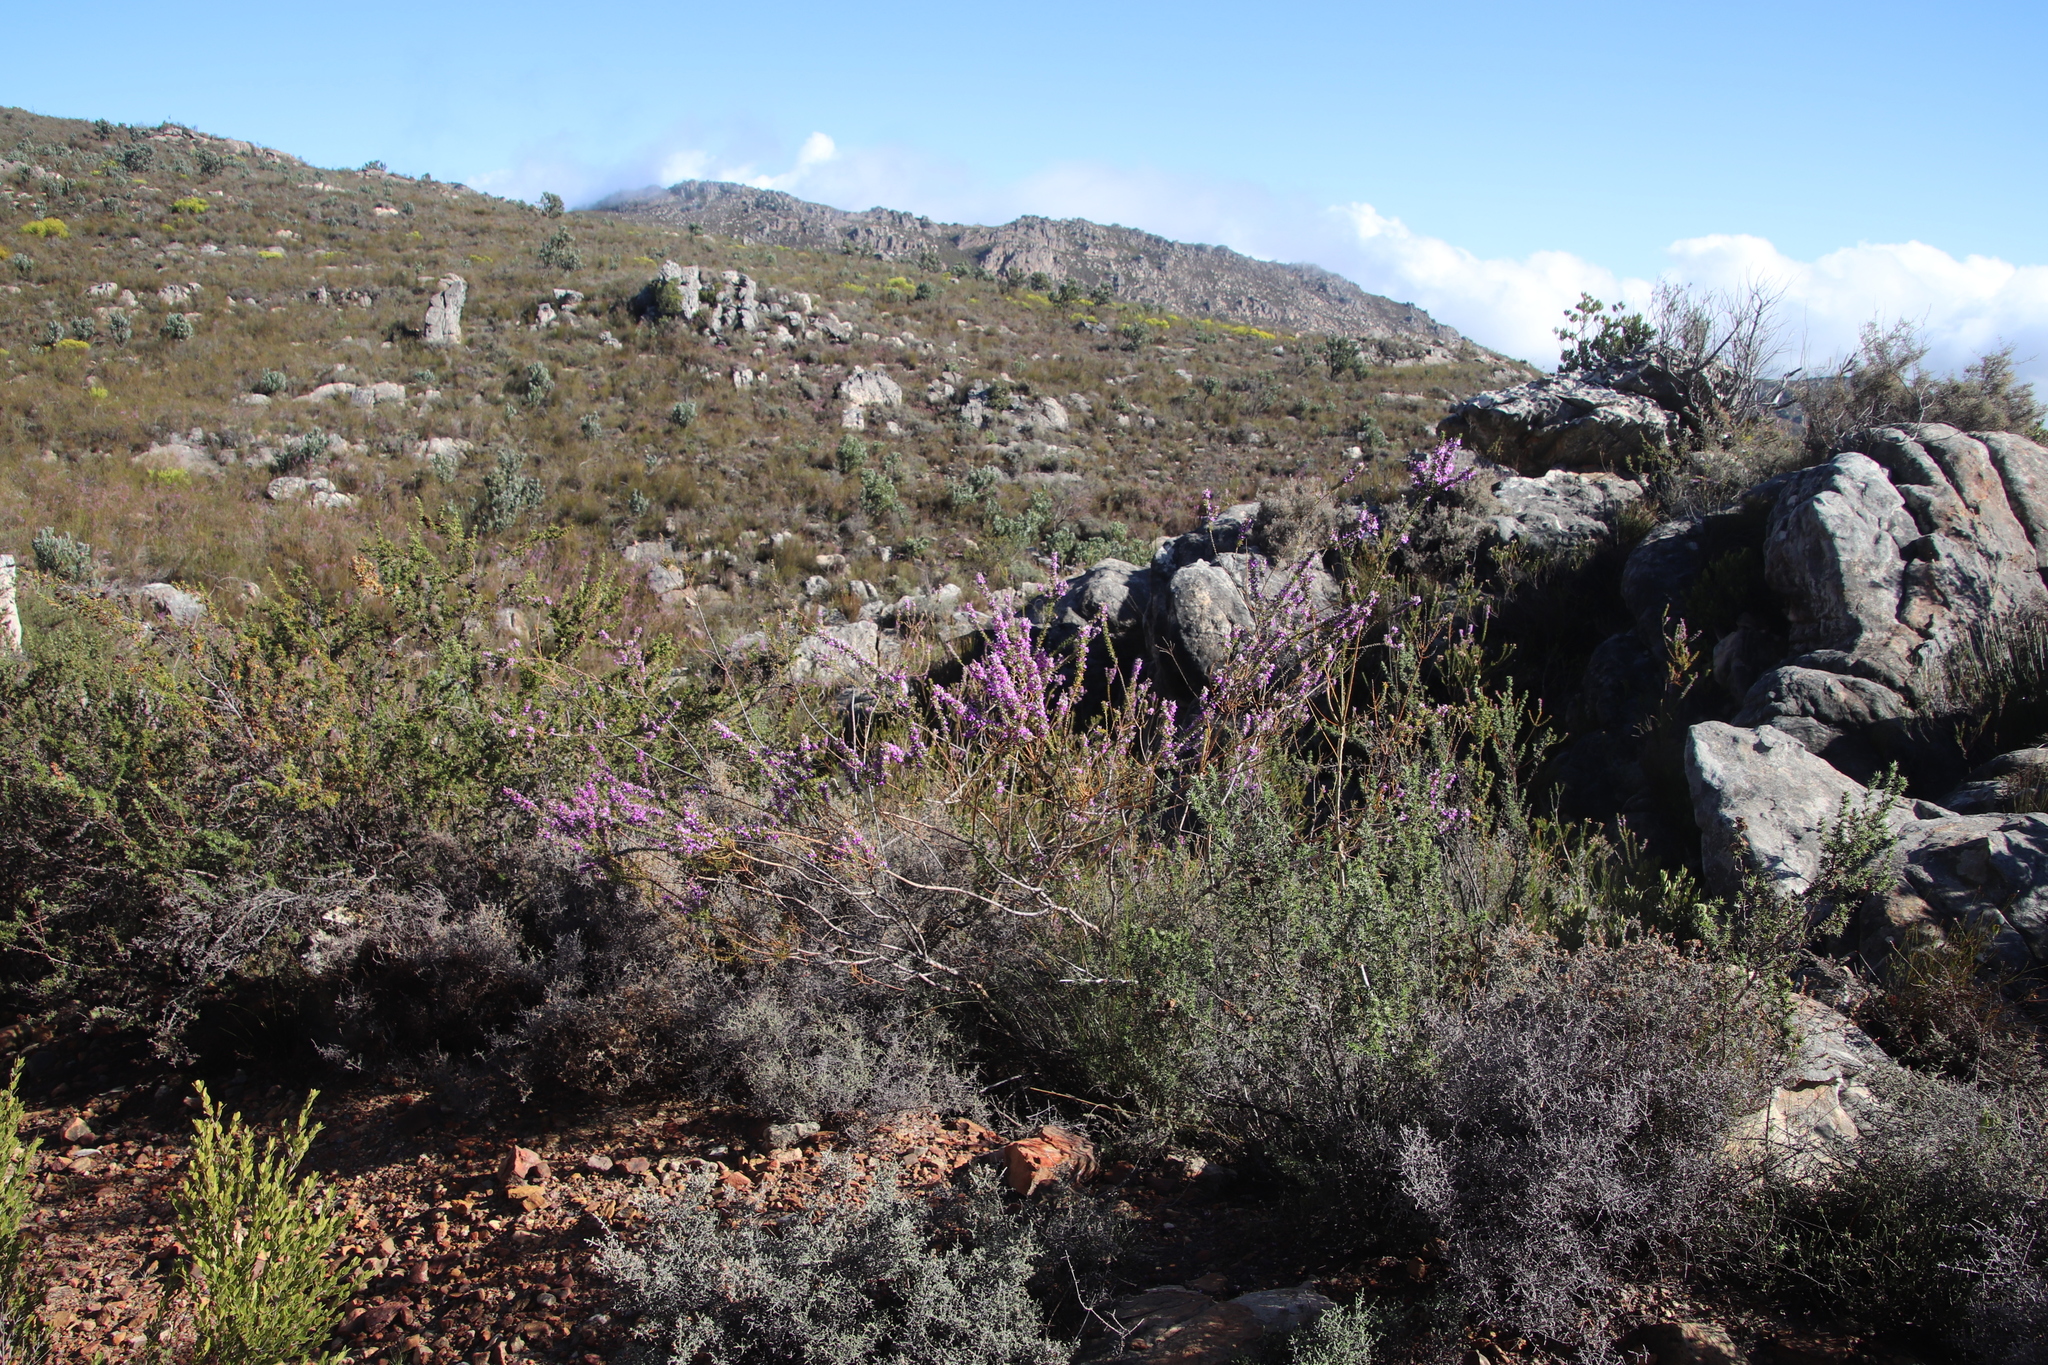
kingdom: Plantae
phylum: Tracheophyta
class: Magnoliopsida
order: Fabales
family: Polygalaceae
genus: Muraltia
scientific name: Muraltia heisteria
